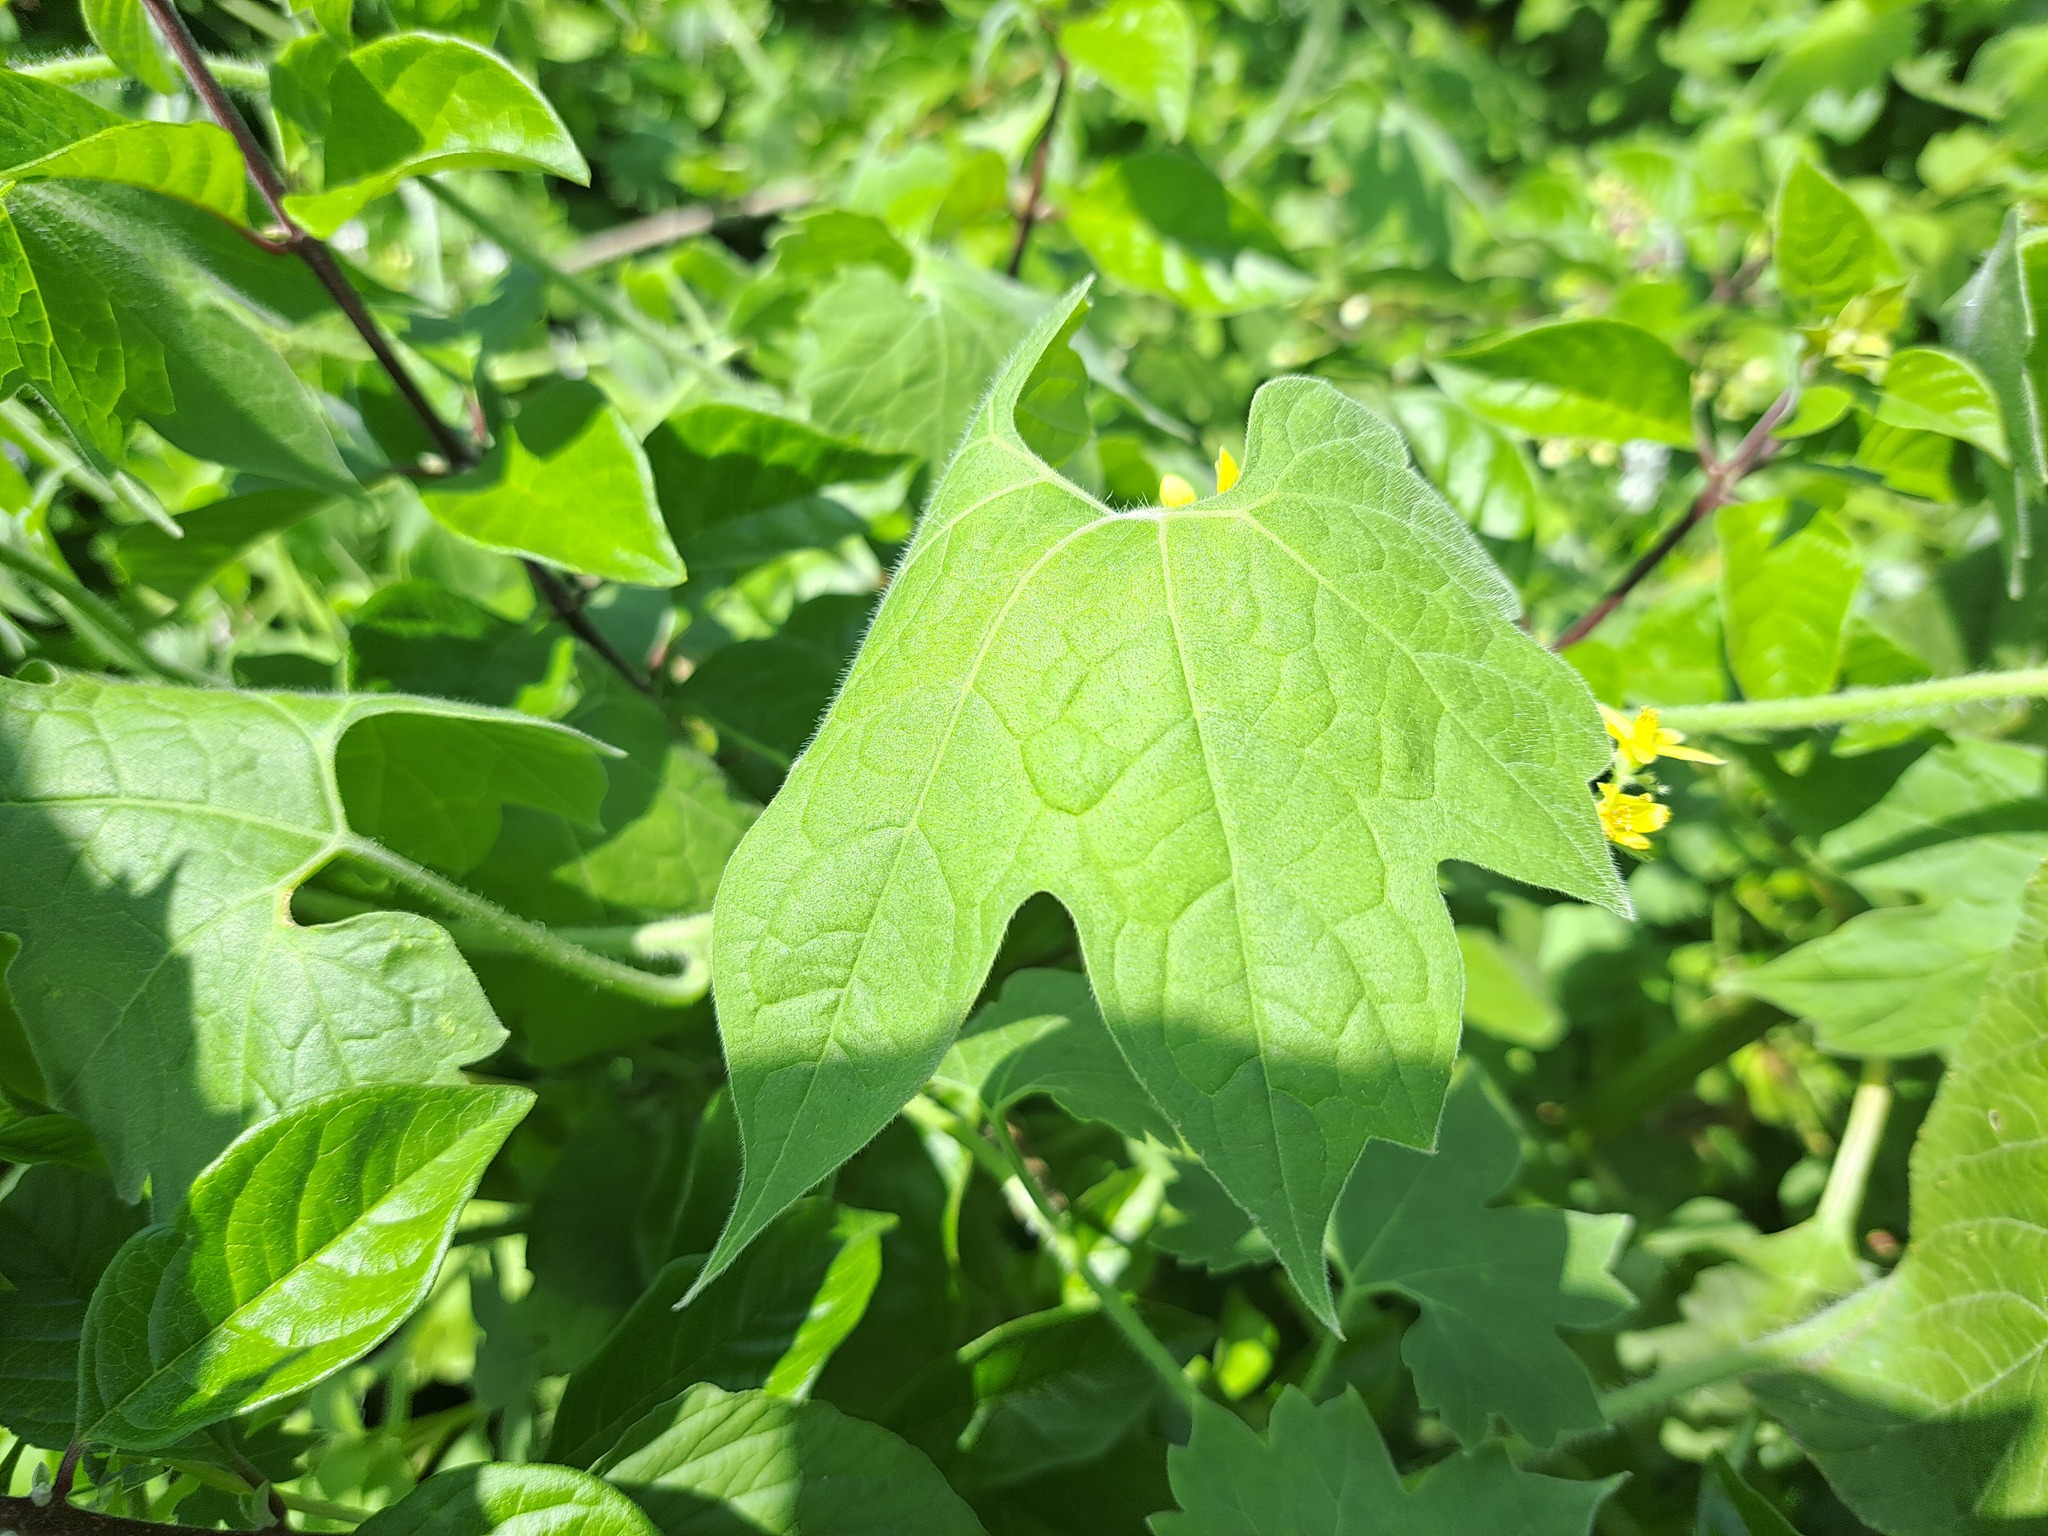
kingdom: Plantae
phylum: Tracheophyta
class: Magnoliopsida
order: Cornales
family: Loasaceae
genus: Gronovia
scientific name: Gronovia scandens
